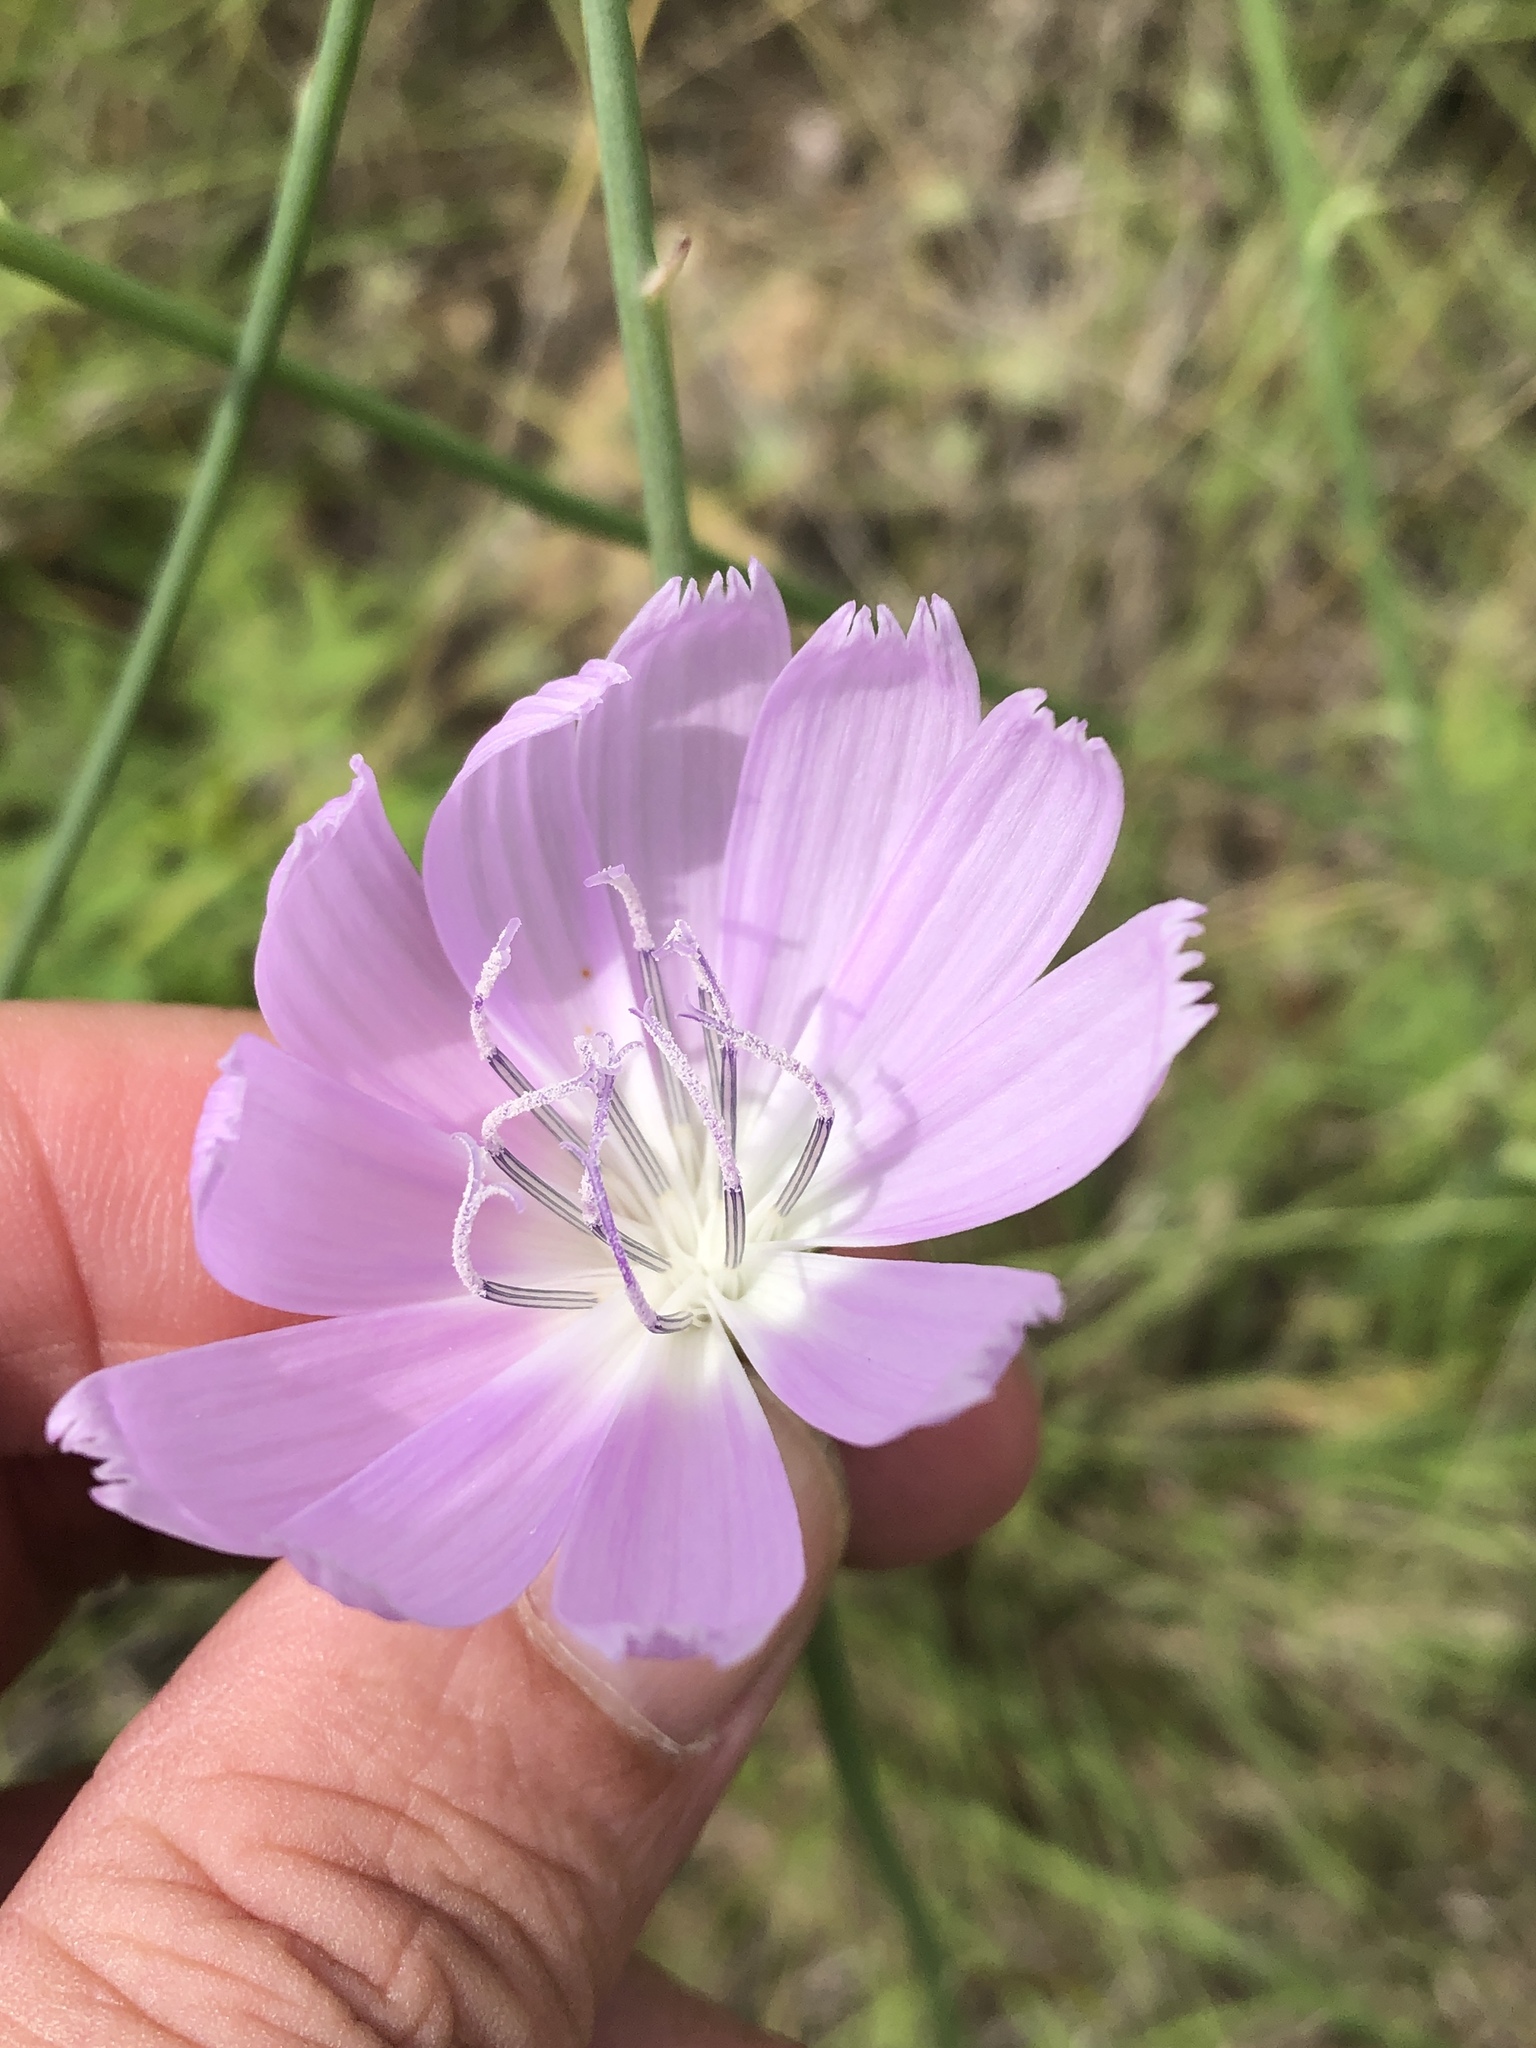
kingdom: Plantae
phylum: Tracheophyta
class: Magnoliopsida
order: Asterales
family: Asteraceae
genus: Lygodesmia
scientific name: Lygodesmia texana
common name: Texas skeleton-plant
